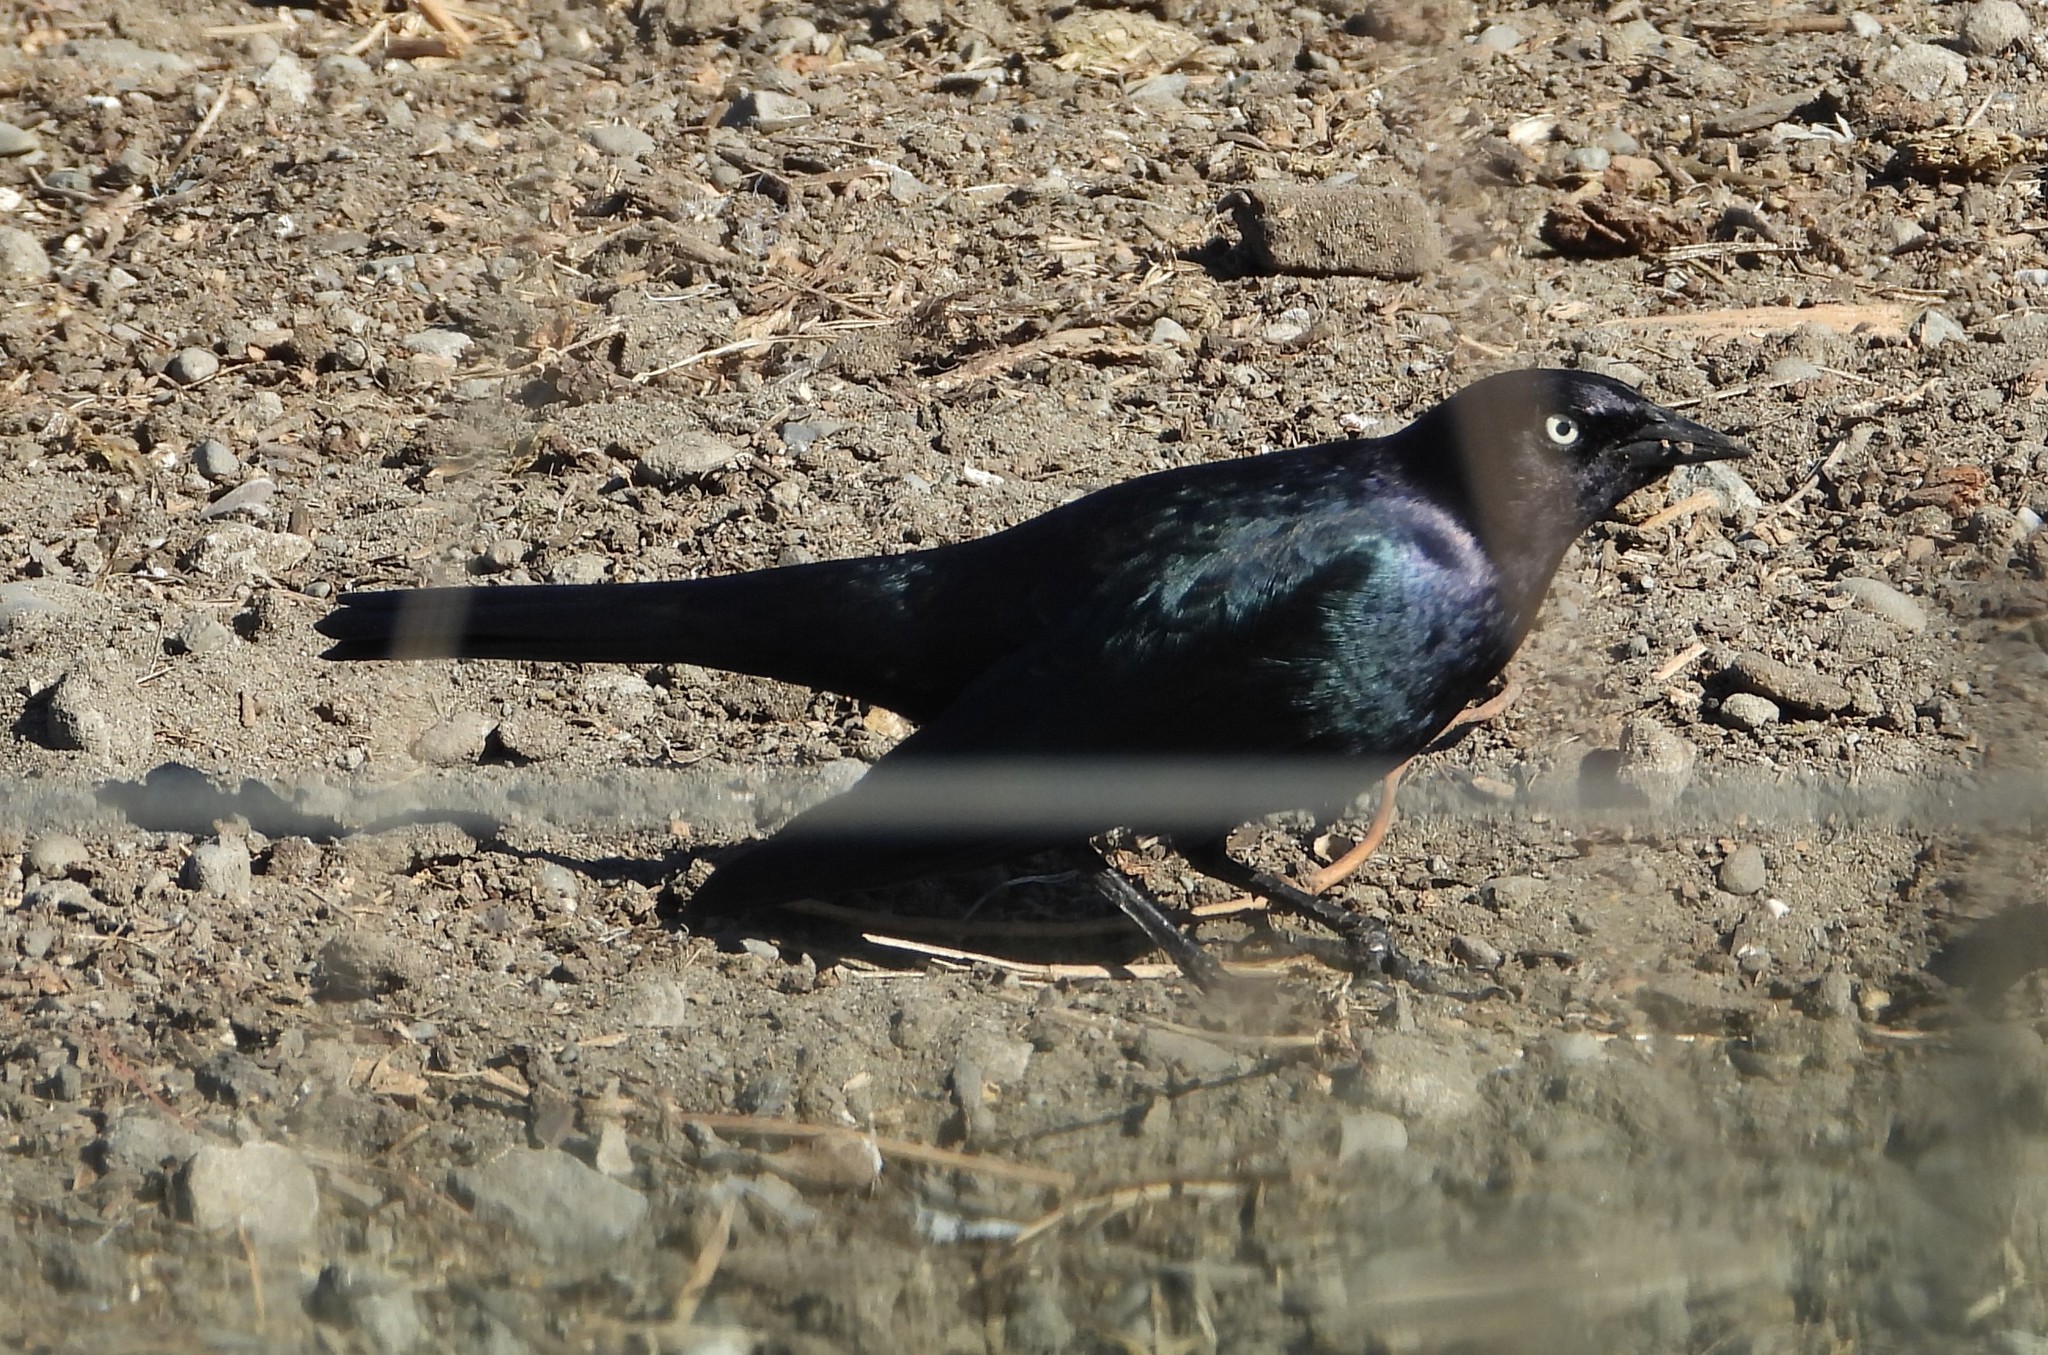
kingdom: Animalia
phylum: Chordata
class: Aves
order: Passeriformes
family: Icteridae
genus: Euphagus
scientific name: Euphagus cyanocephalus
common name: Brewer's blackbird
